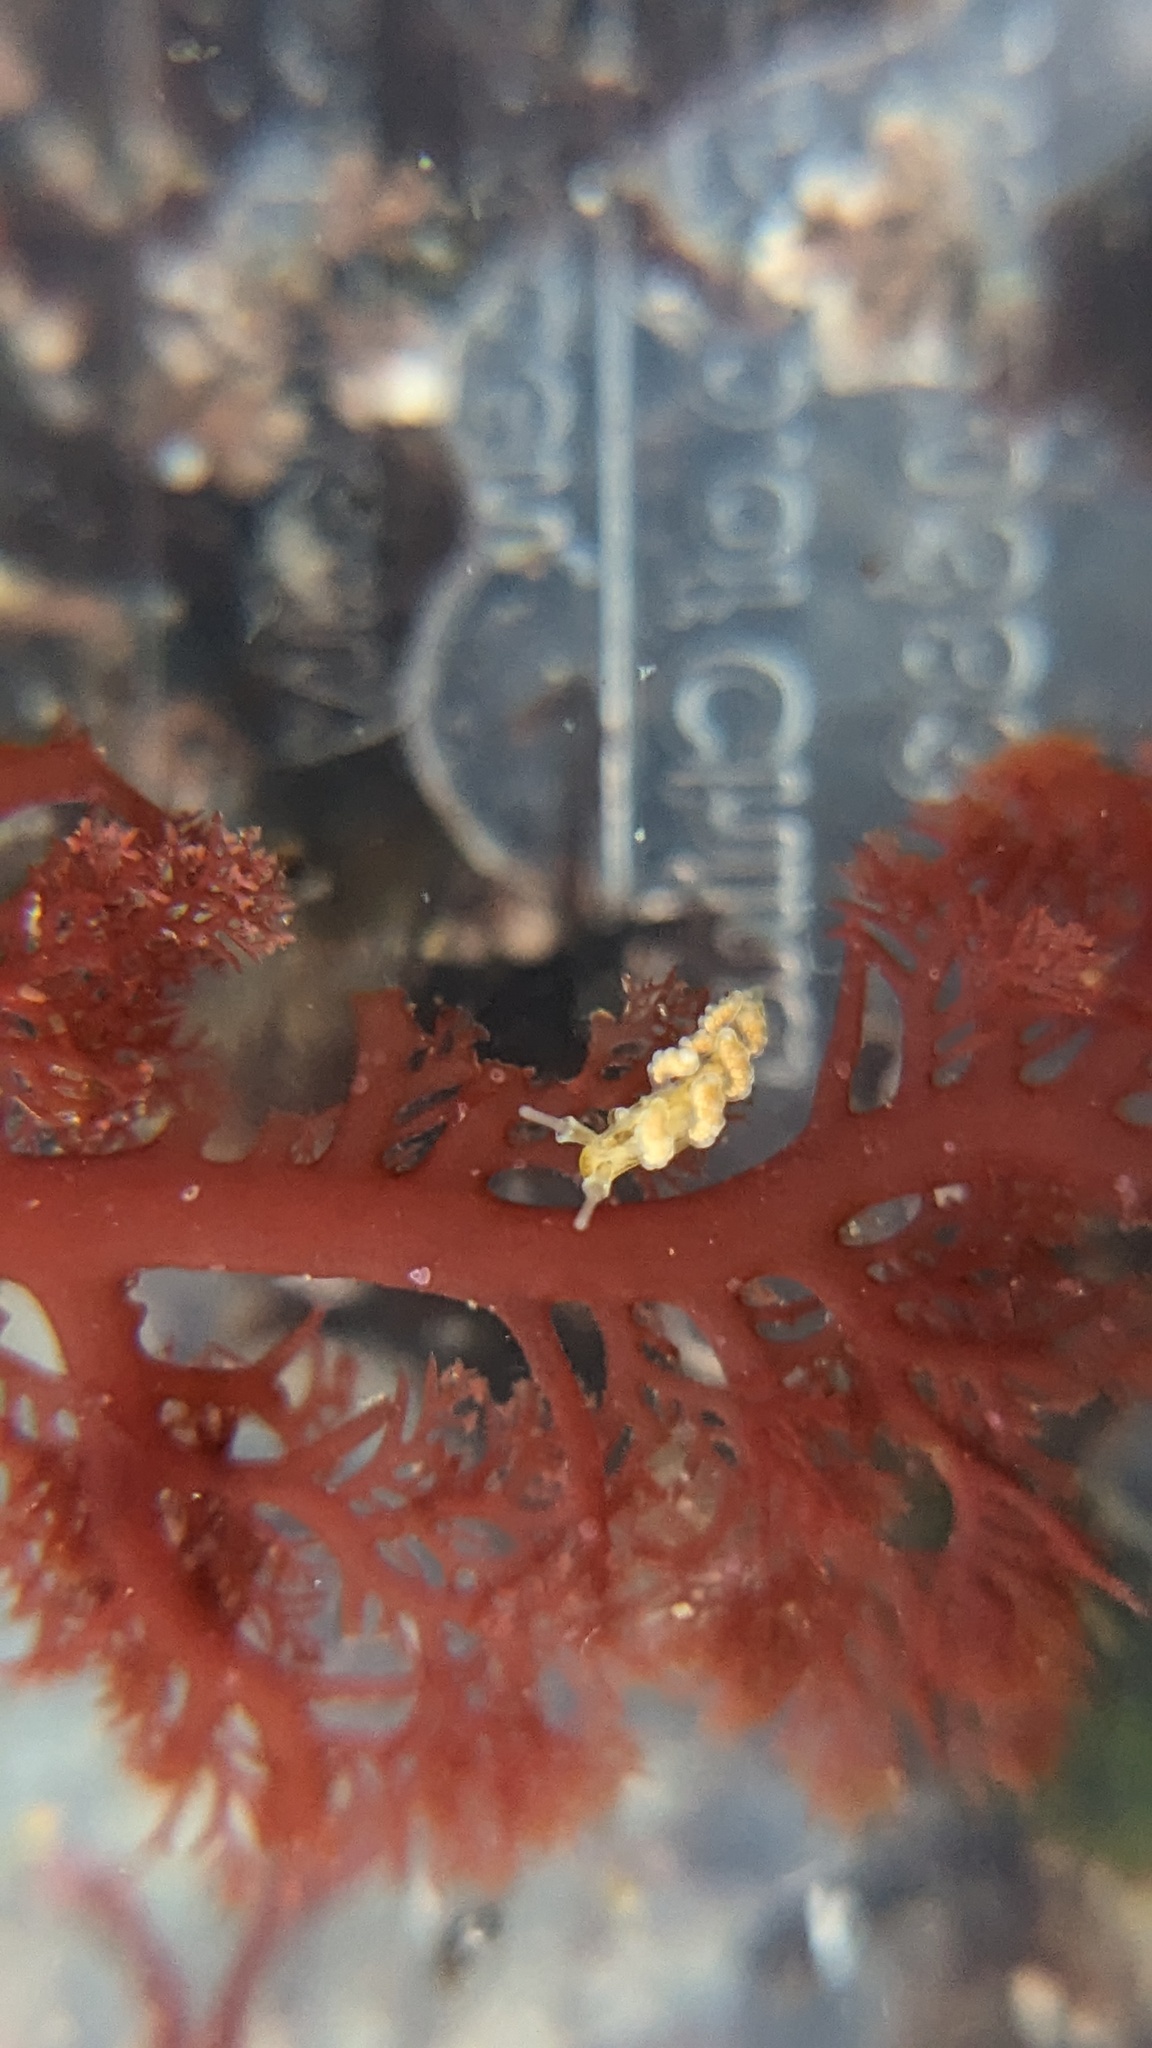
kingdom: Animalia
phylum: Mollusca
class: Gastropoda
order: Nudibranchia
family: Dotidae
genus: Doto
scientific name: Doto columbiana
